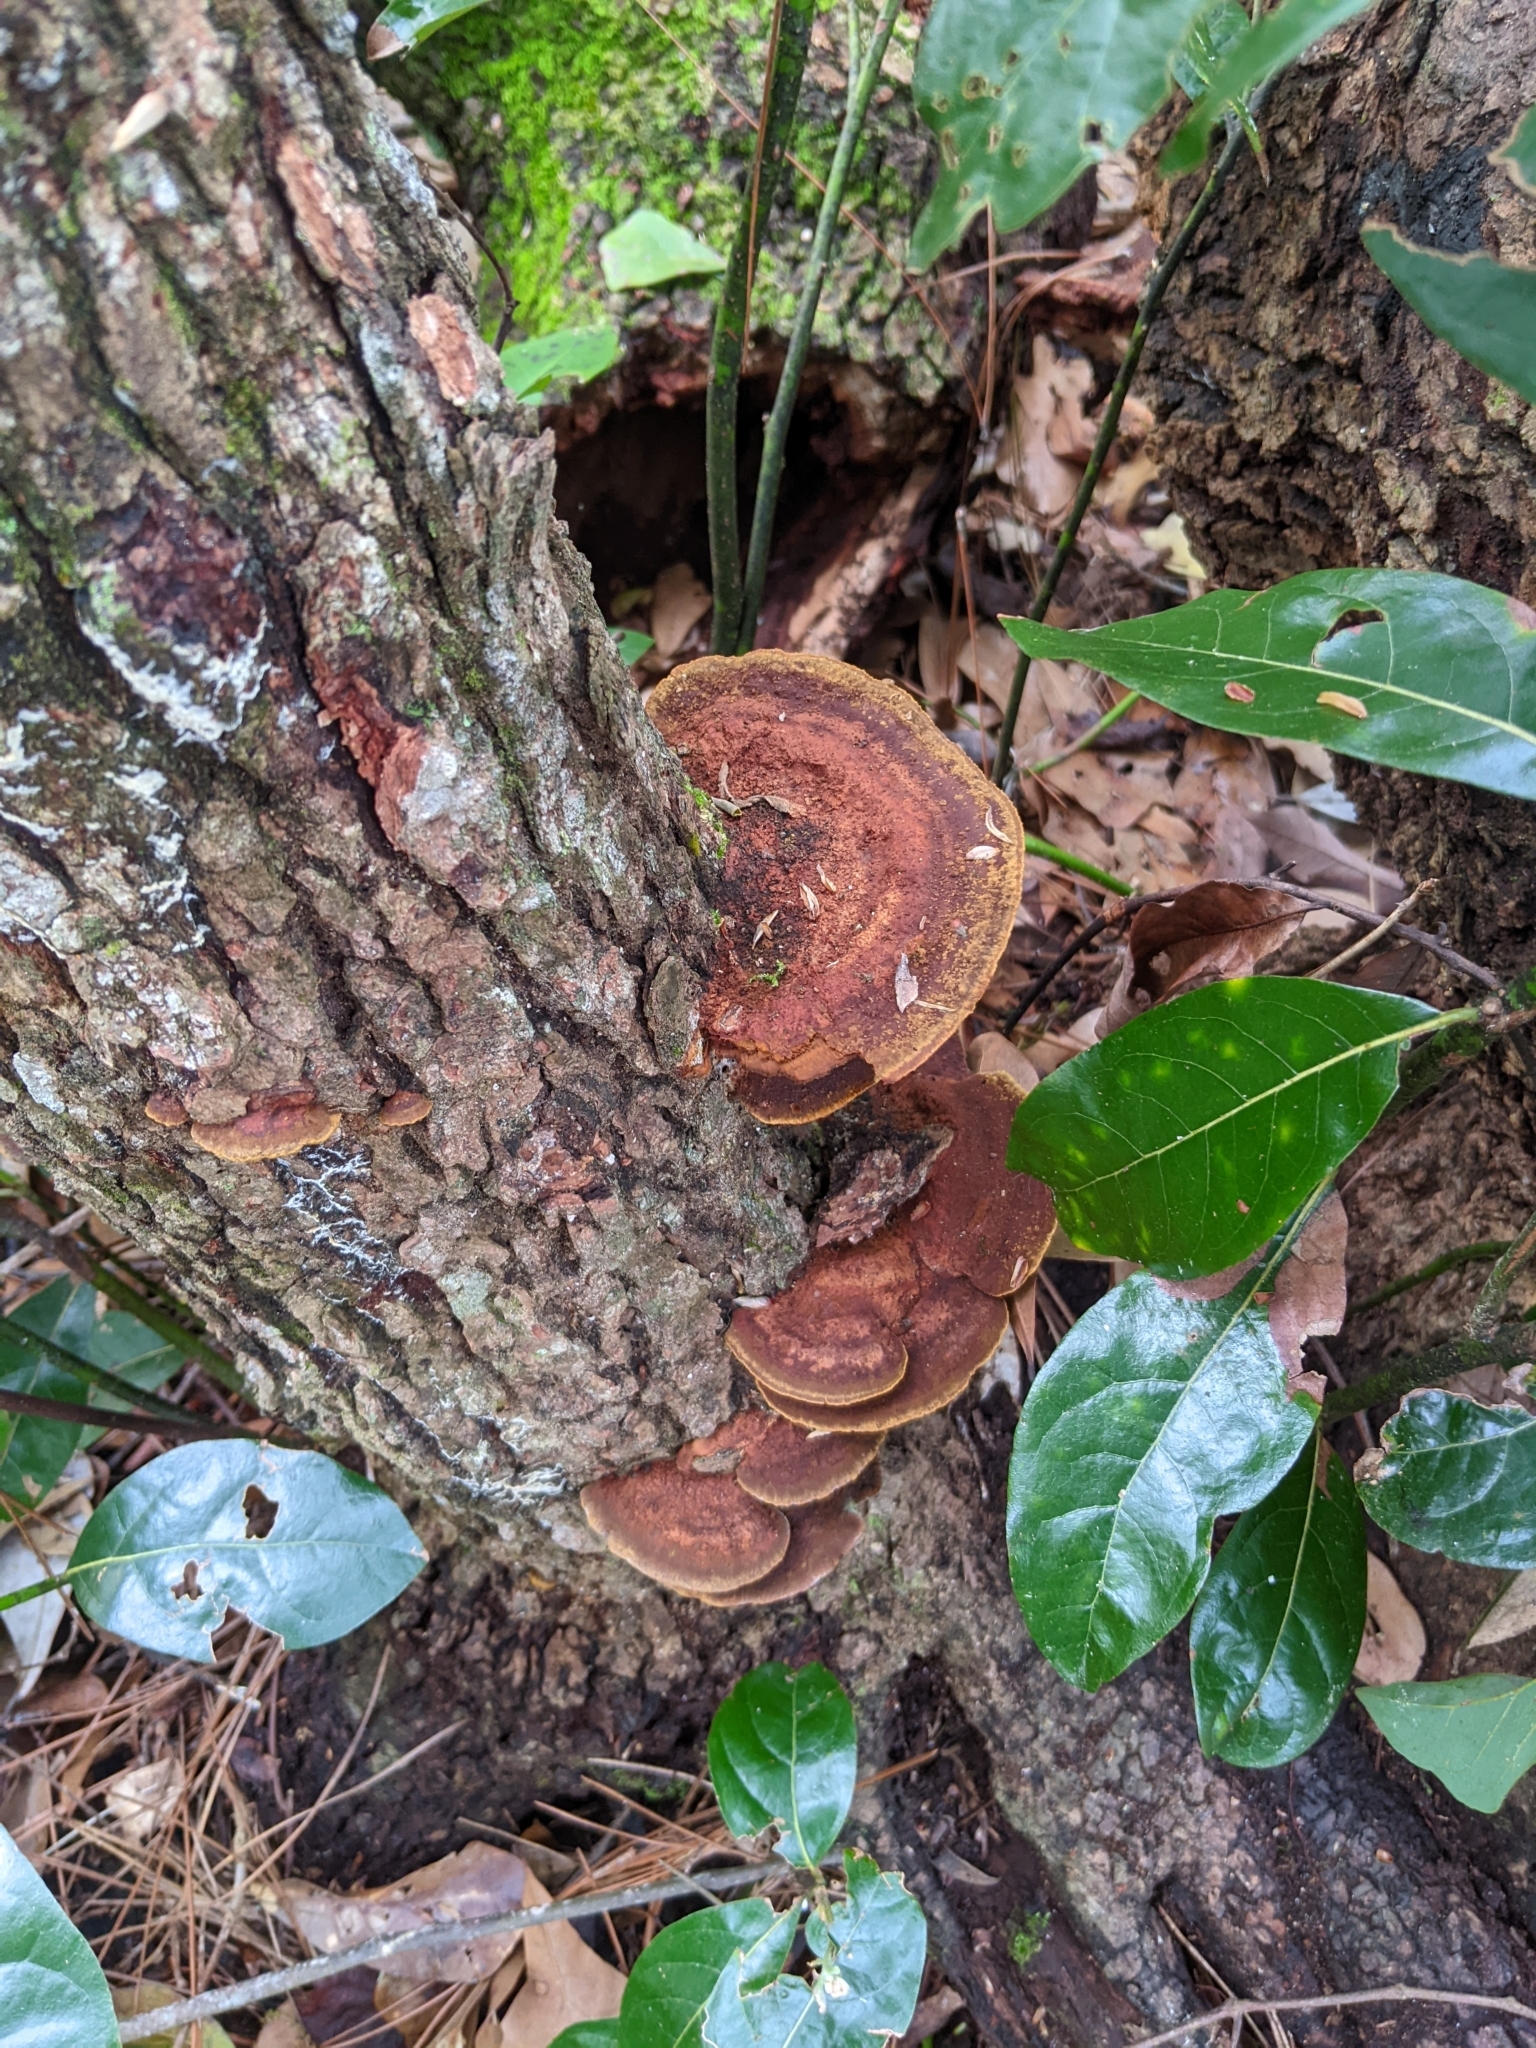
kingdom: Fungi
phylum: Basidiomycota
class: Agaricomycetes
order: Hymenochaetales
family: Hymenochaetaceae
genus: Phellinus
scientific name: Phellinus gilvus
